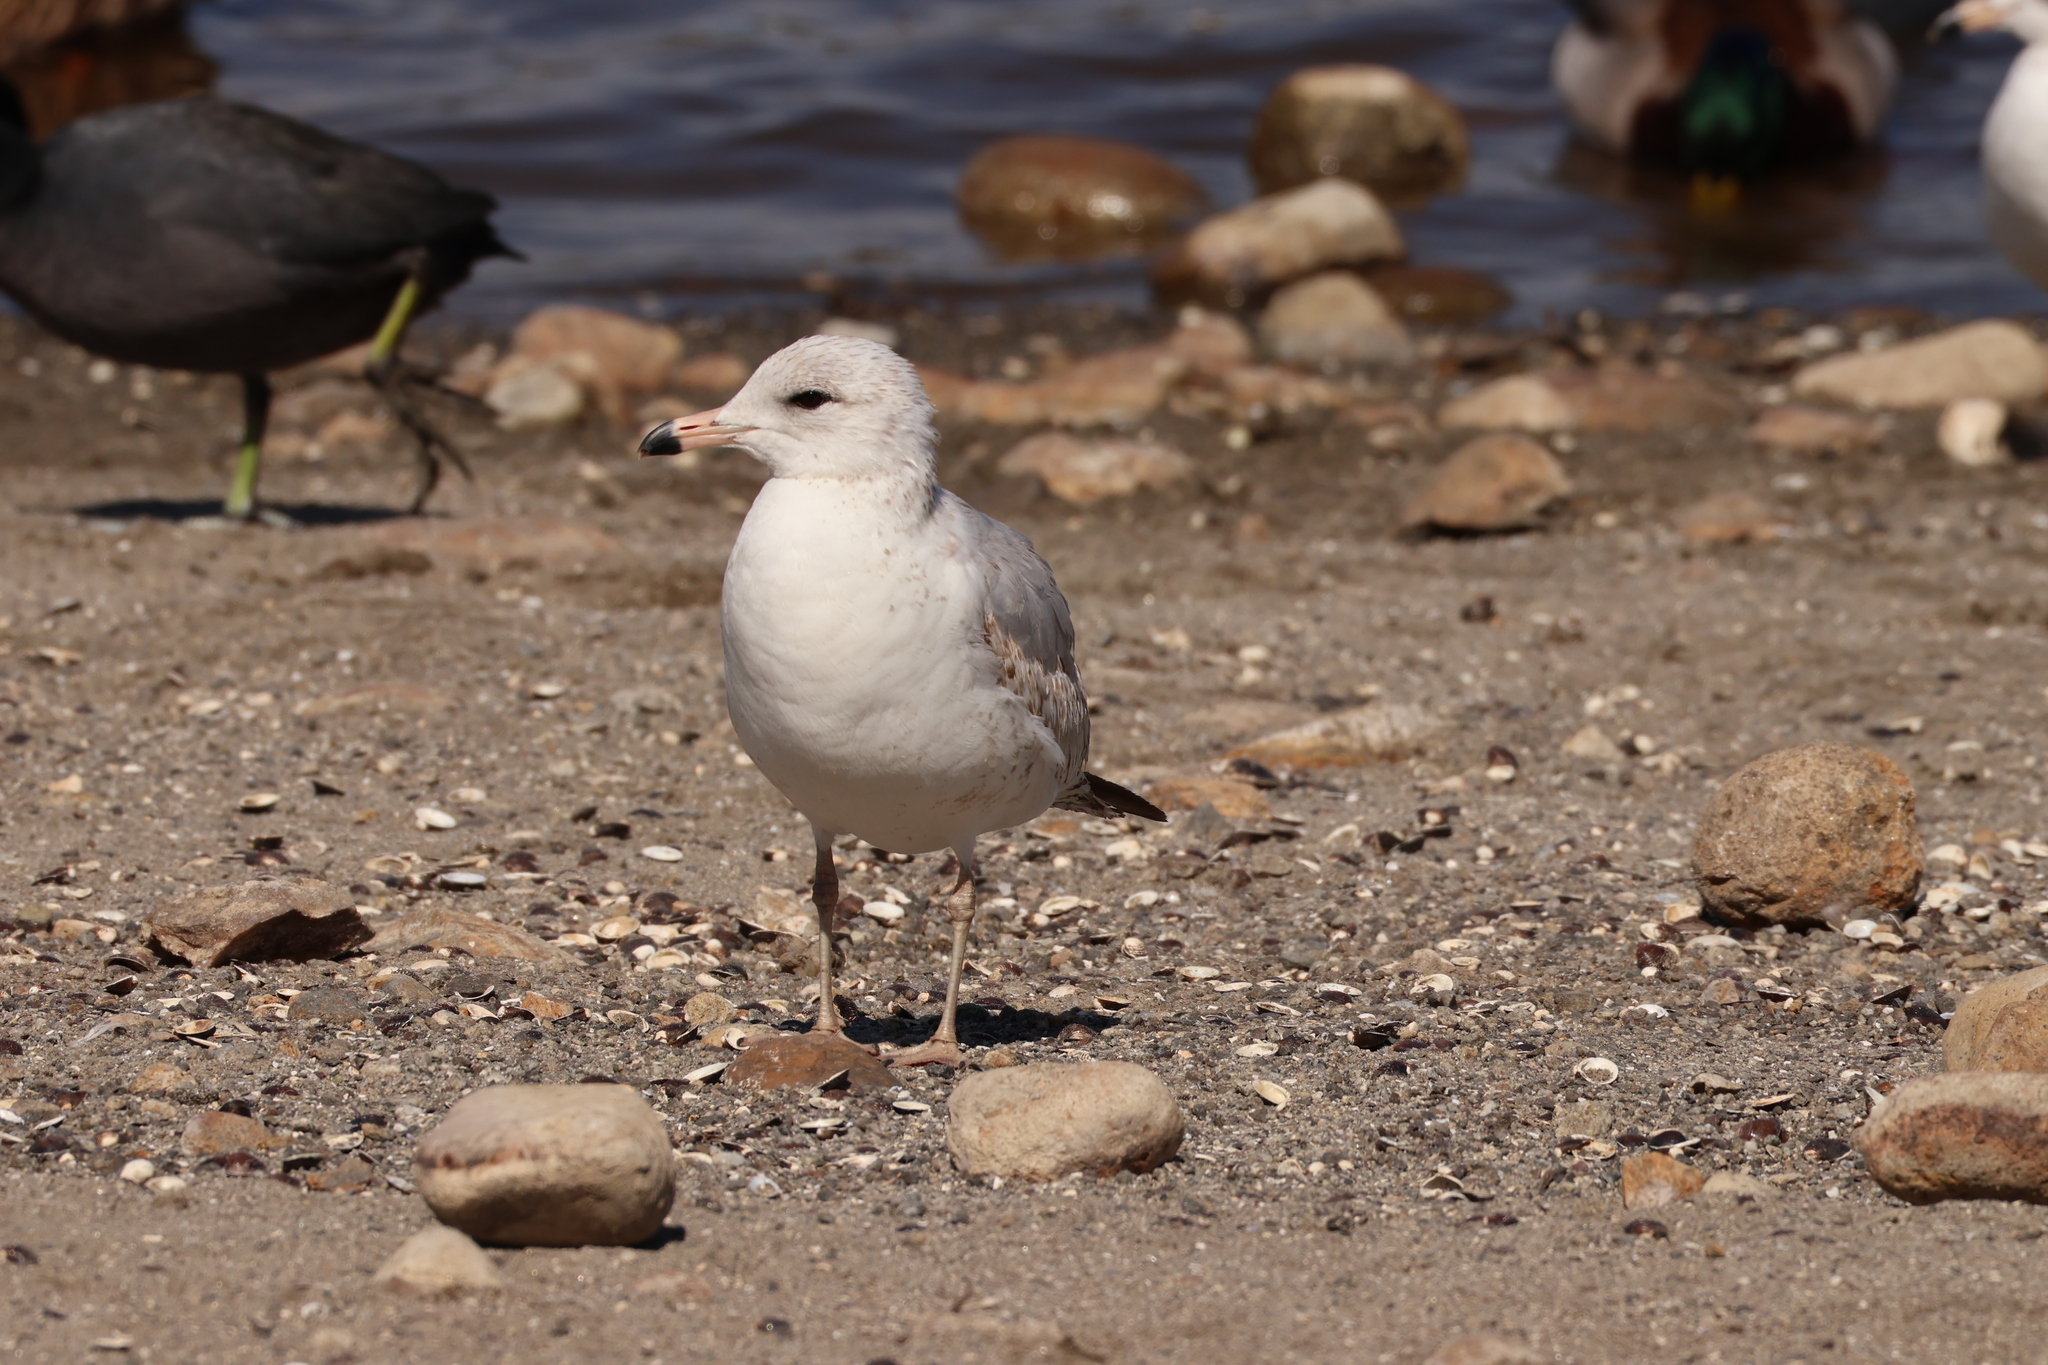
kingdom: Animalia
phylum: Chordata
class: Aves
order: Charadriiformes
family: Laridae
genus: Larus
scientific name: Larus delawarensis
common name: Ring-billed gull
